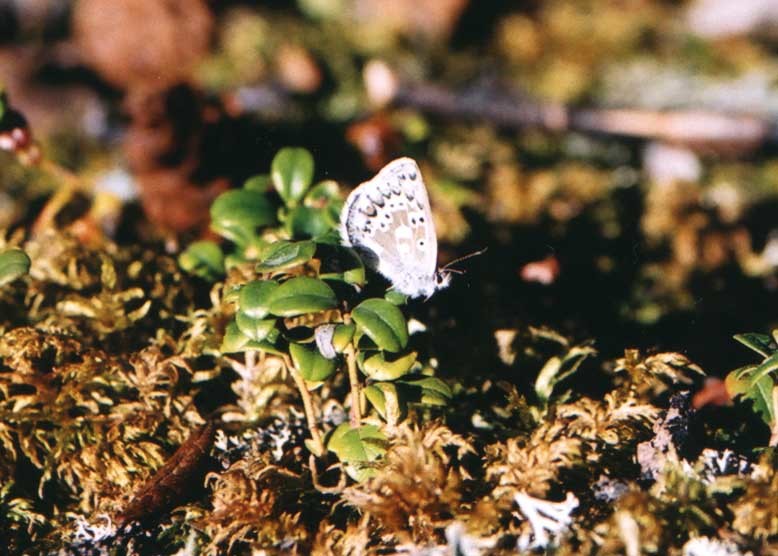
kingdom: Animalia
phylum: Arthropoda
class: Insecta
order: Lepidoptera
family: Lycaenidae
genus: Agriades
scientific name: Agriades glandon
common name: Glandon blue
